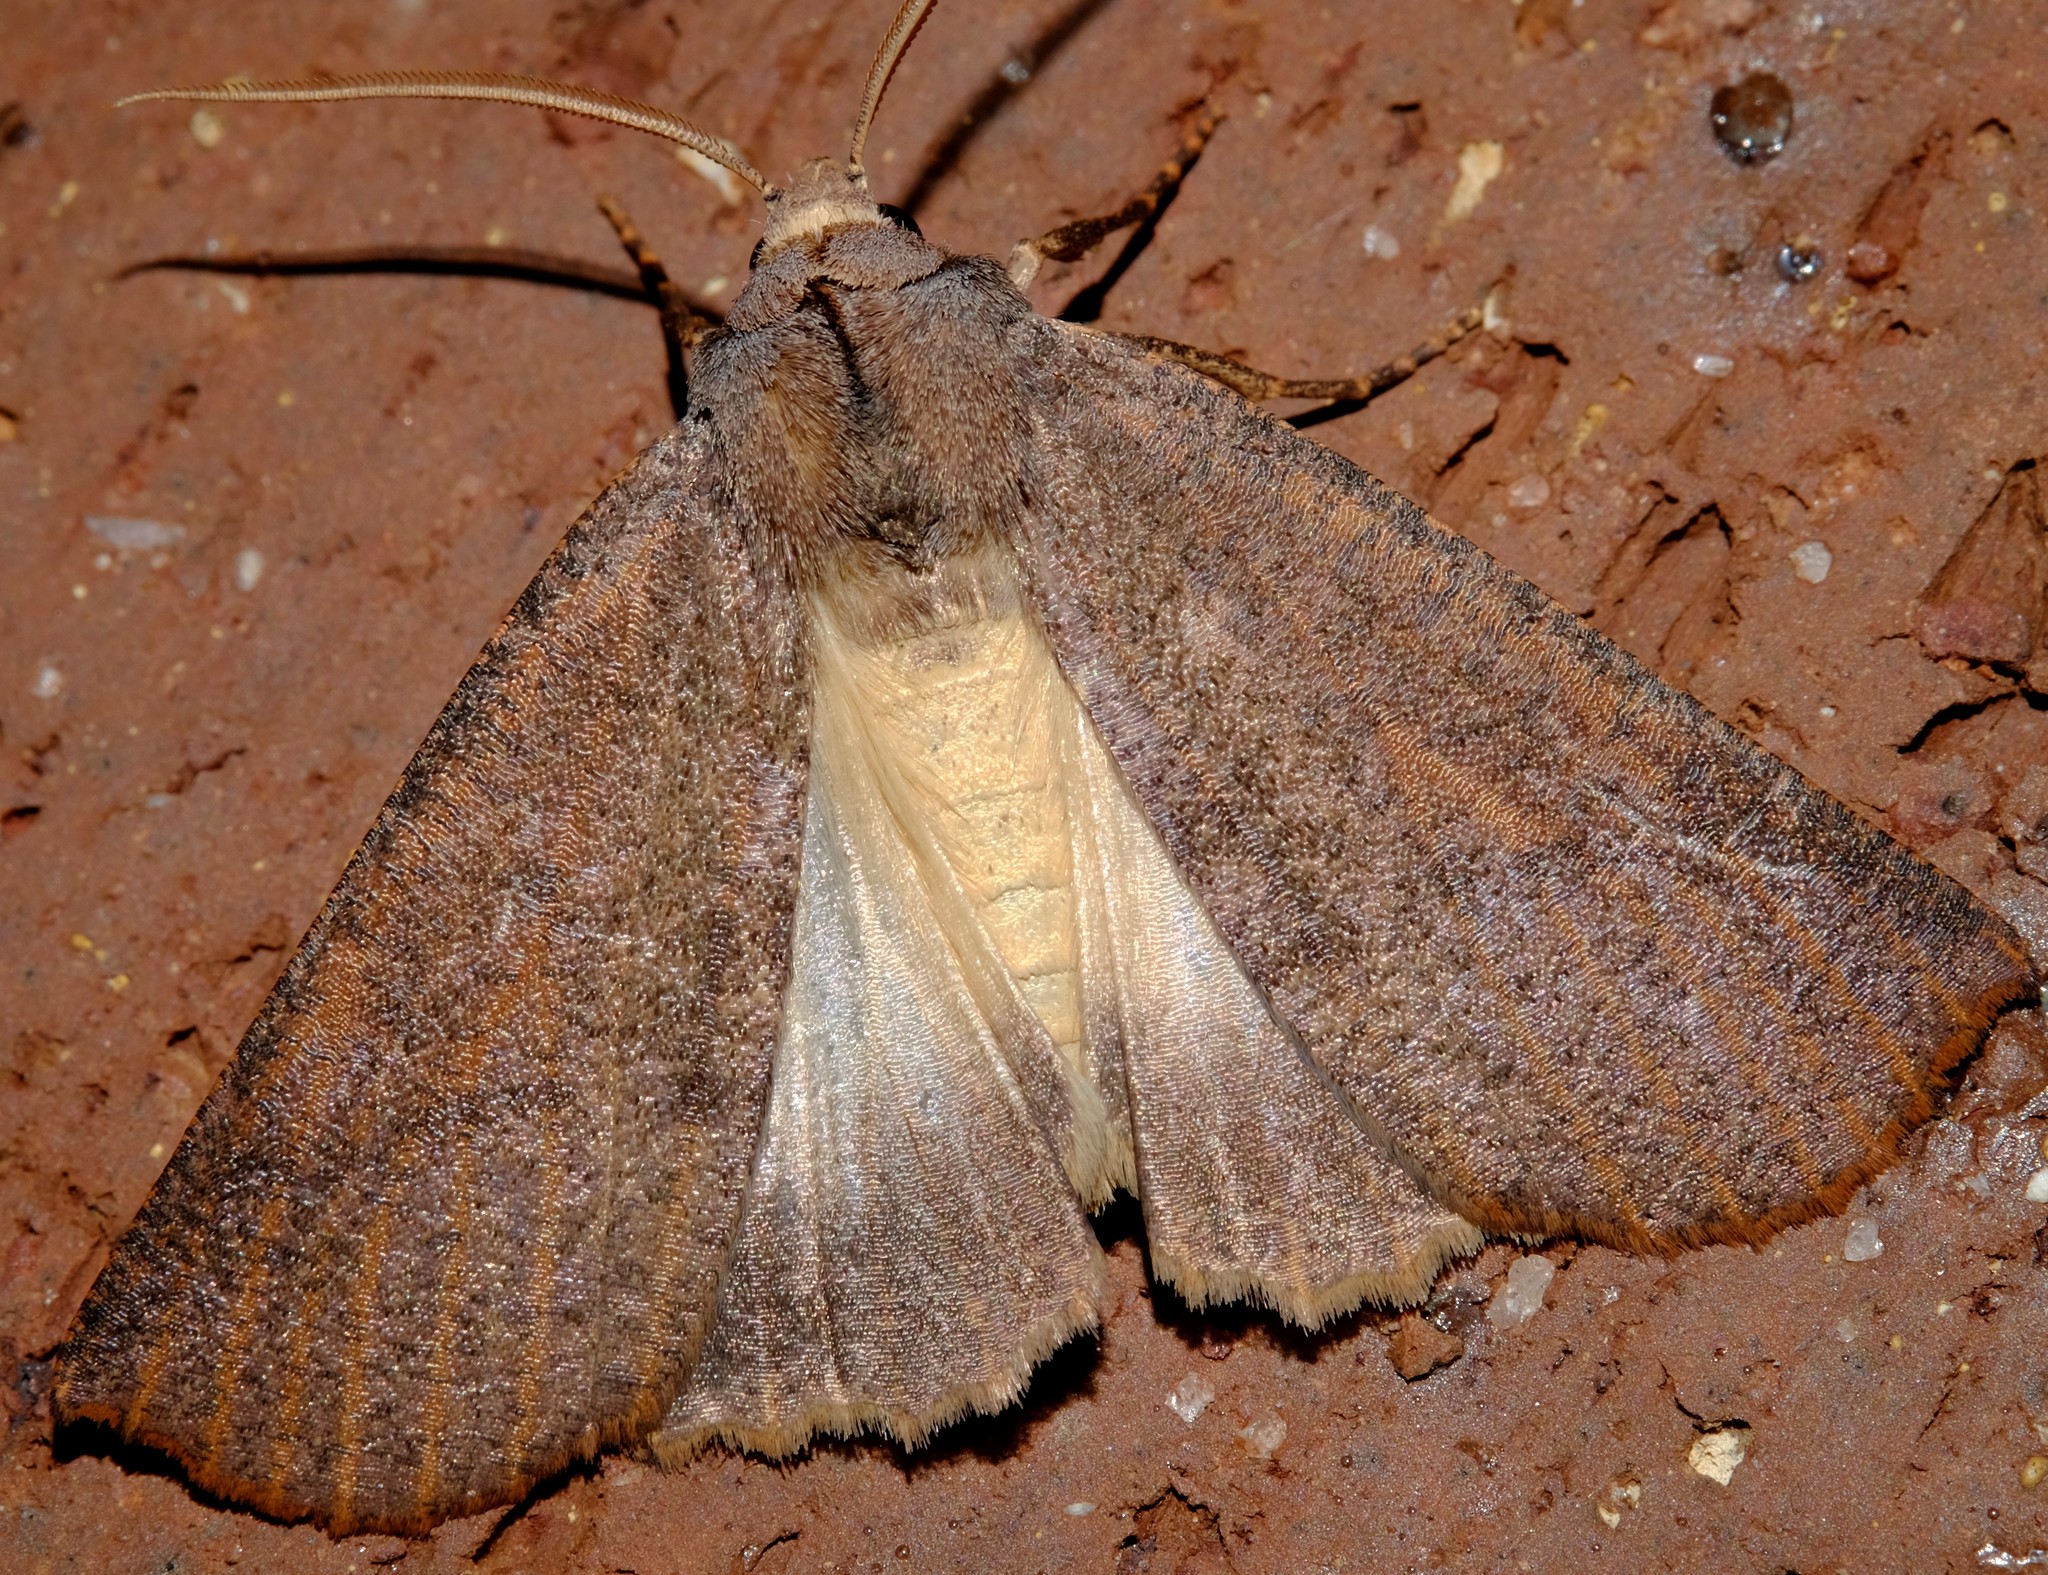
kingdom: Animalia
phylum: Arthropoda
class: Insecta
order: Lepidoptera
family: Geometridae
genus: Fisera
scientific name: Fisera eribola
